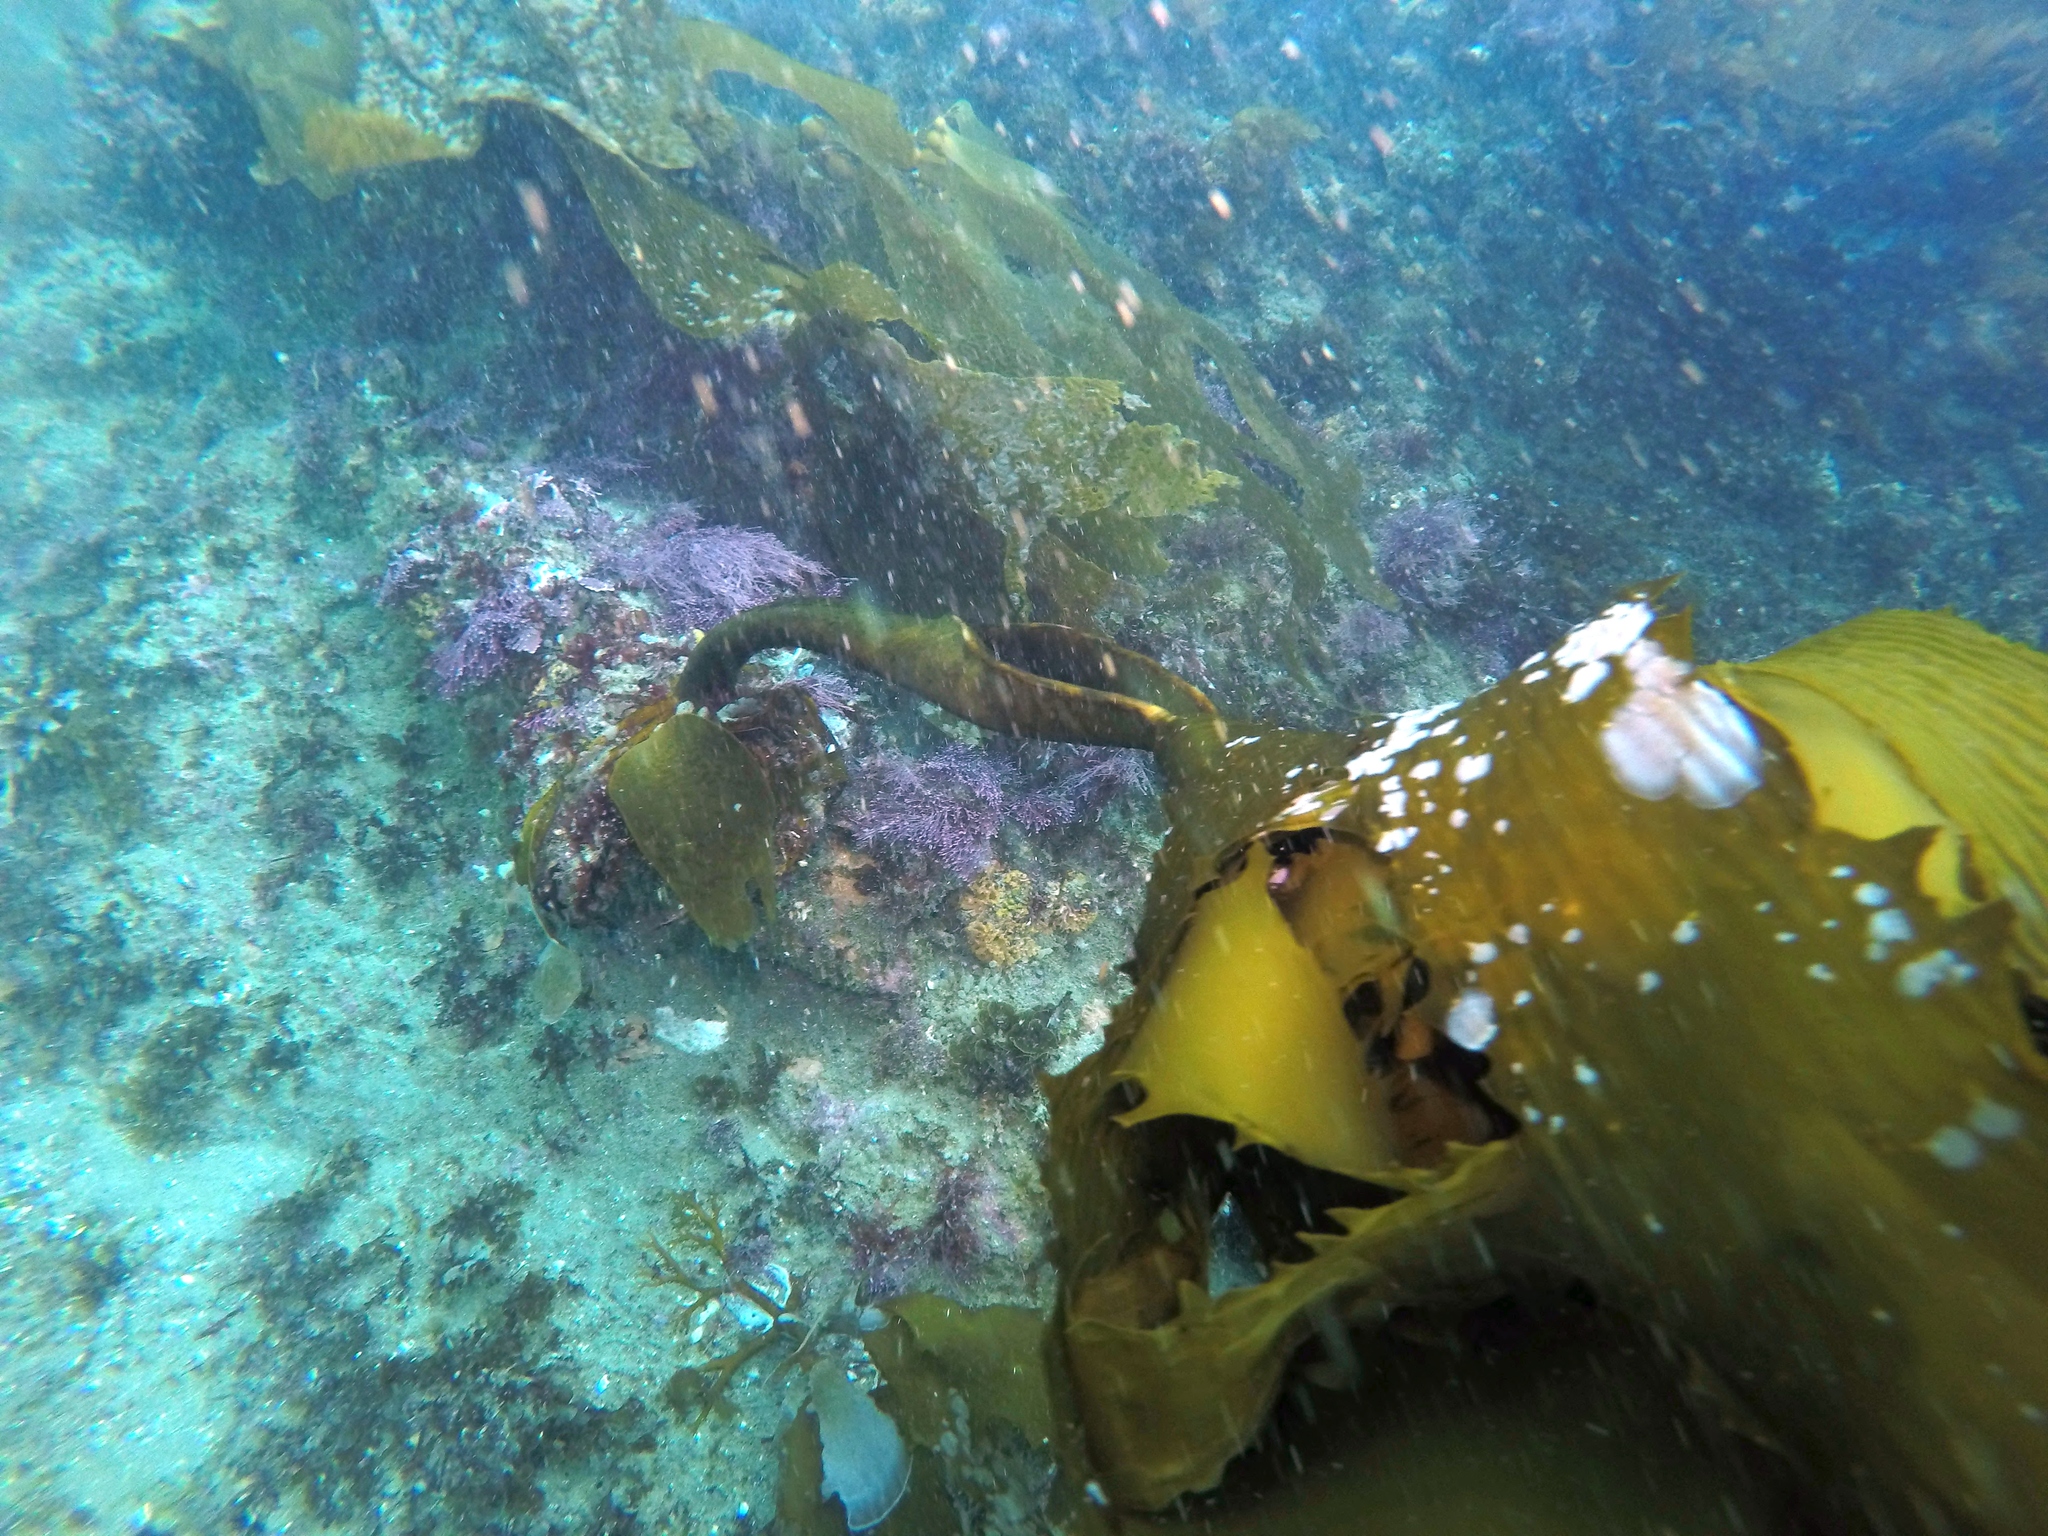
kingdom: Chromista
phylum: Ochrophyta
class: Phaeophyceae
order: Laminariales
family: Lessoniaceae
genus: Eisenia
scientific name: Eisenia arborea
